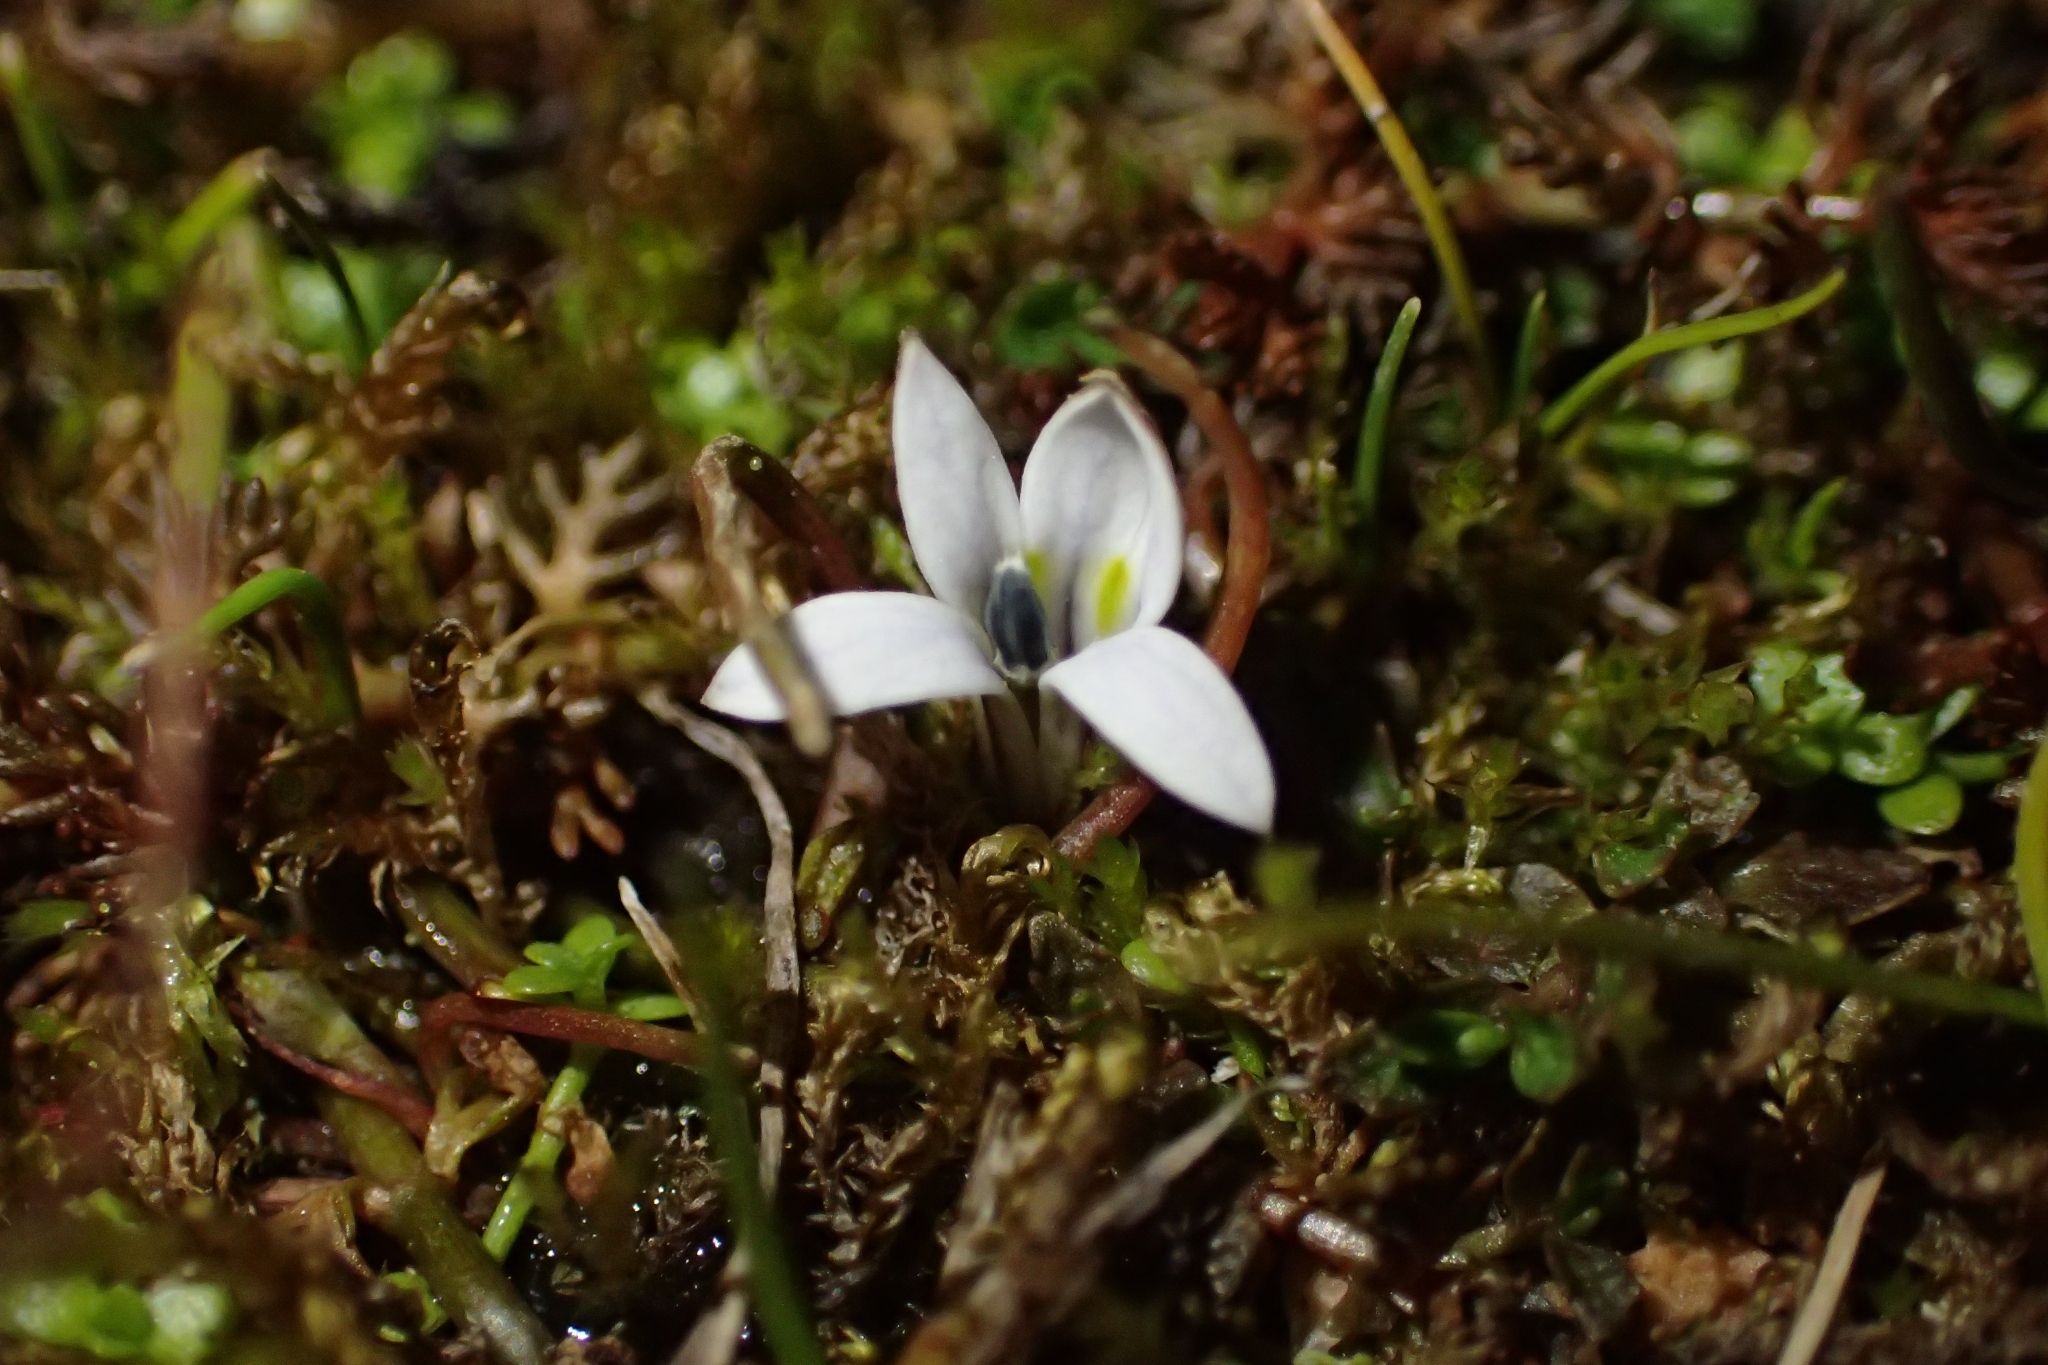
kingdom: Plantae
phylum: Tracheophyta
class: Magnoliopsida
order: Asterales
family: Campanulaceae
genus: Lobelia
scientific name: Lobelia perpusilla
